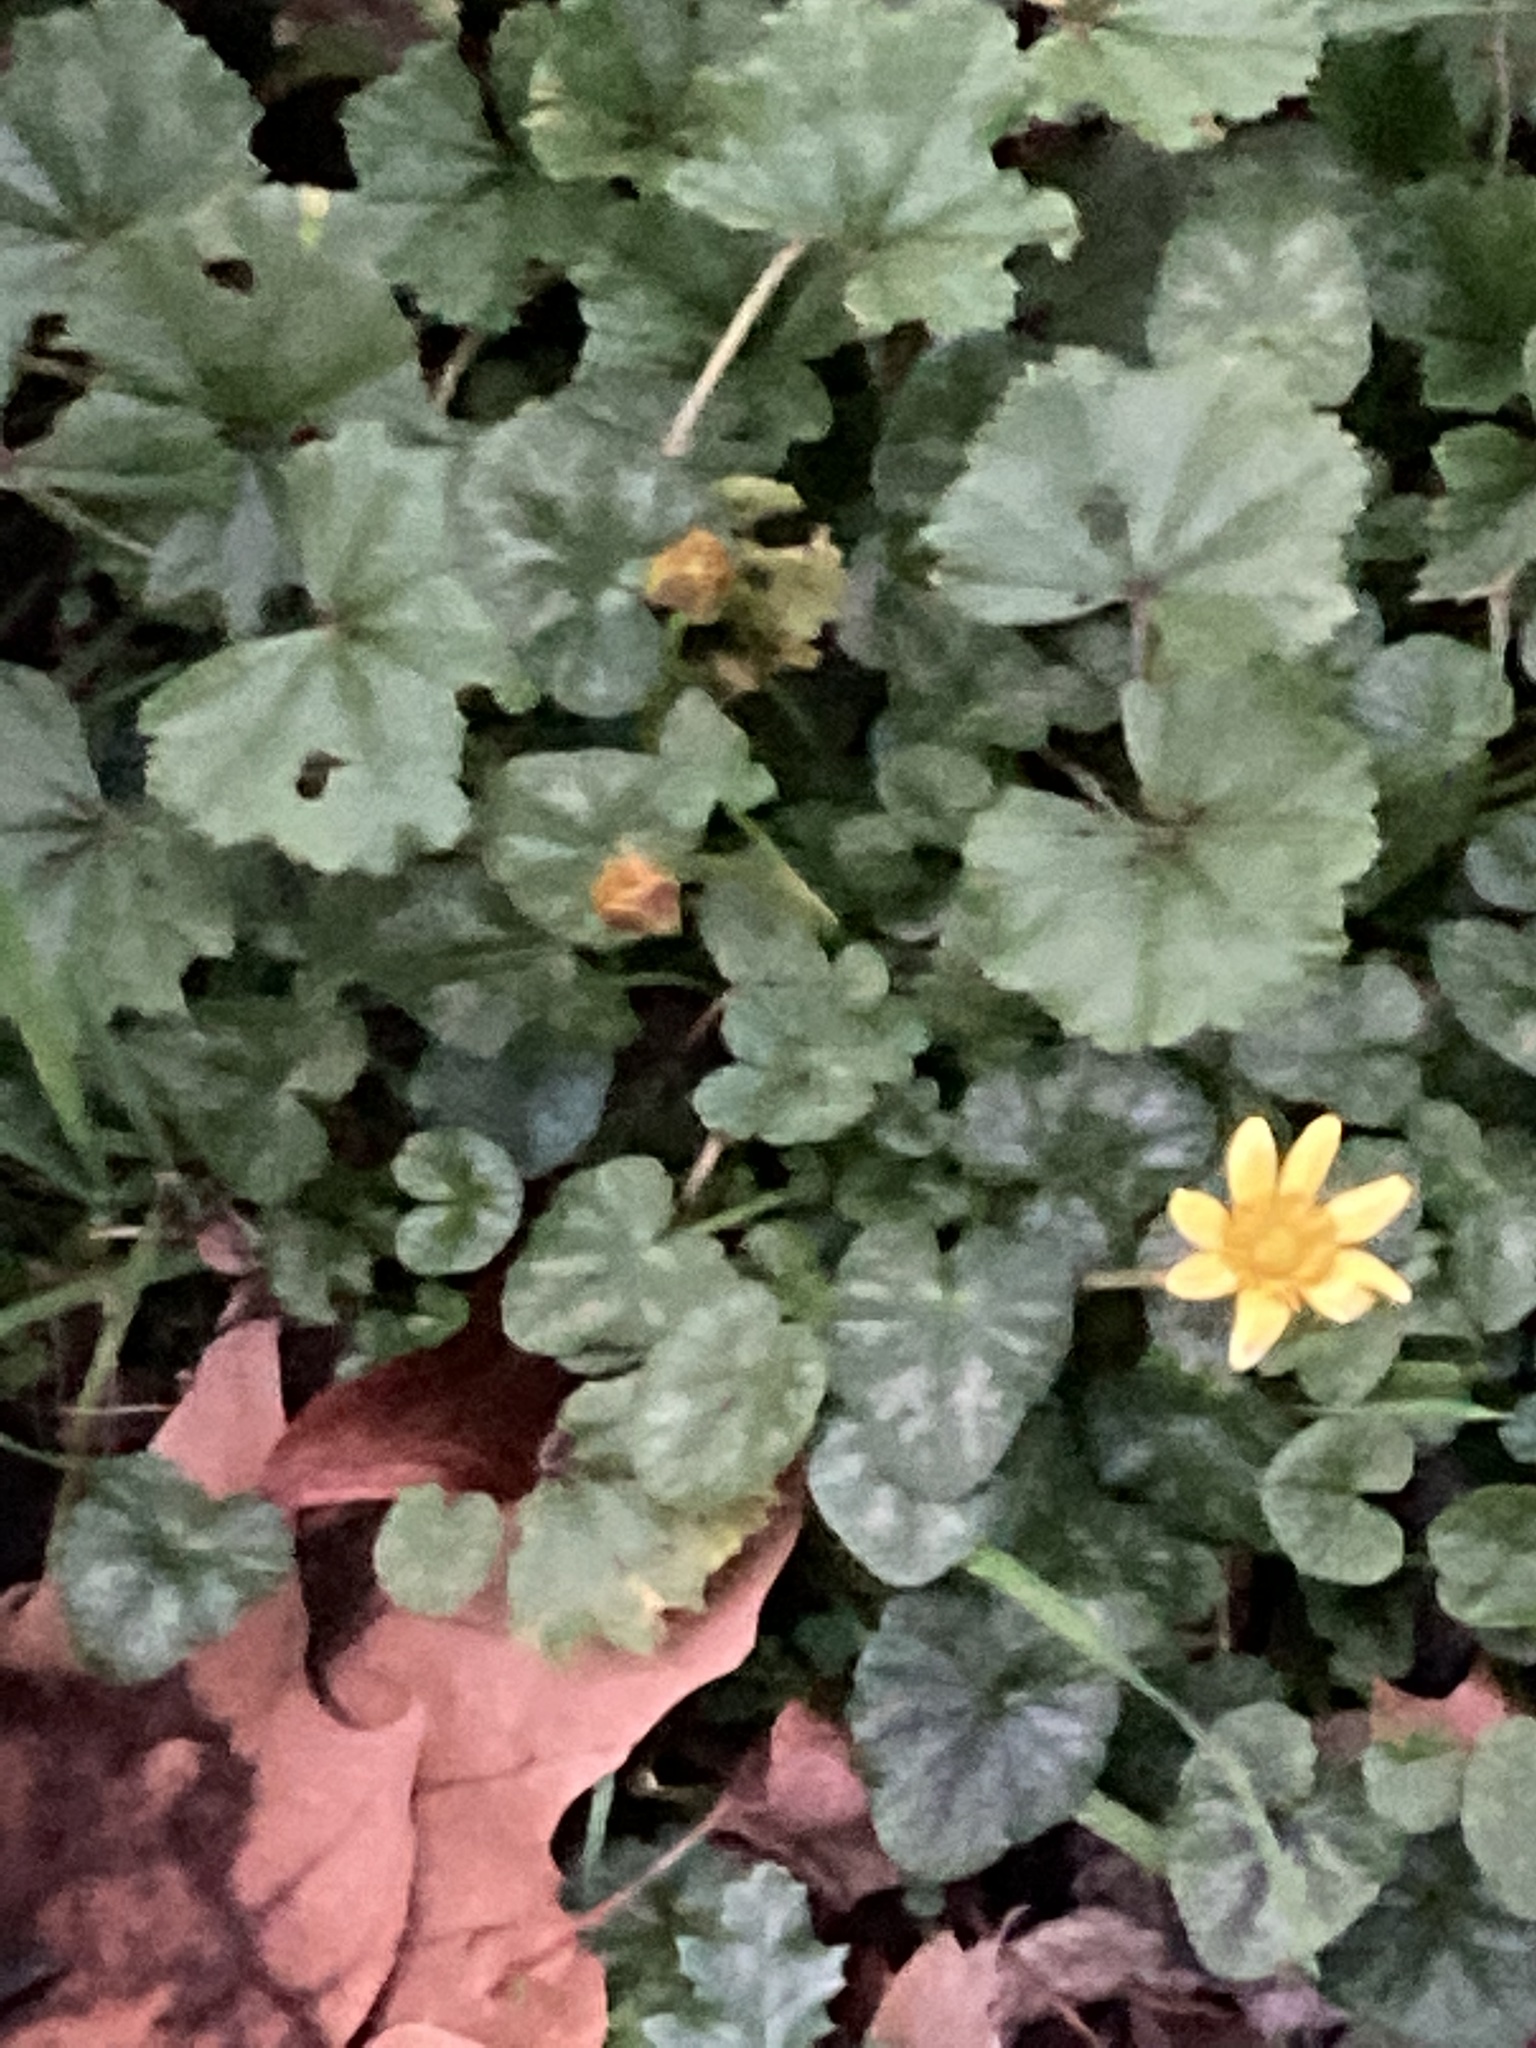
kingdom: Plantae
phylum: Tracheophyta
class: Magnoliopsida
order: Ranunculales
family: Ranunculaceae
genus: Ficaria
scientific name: Ficaria verna
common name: Lesser celandine
